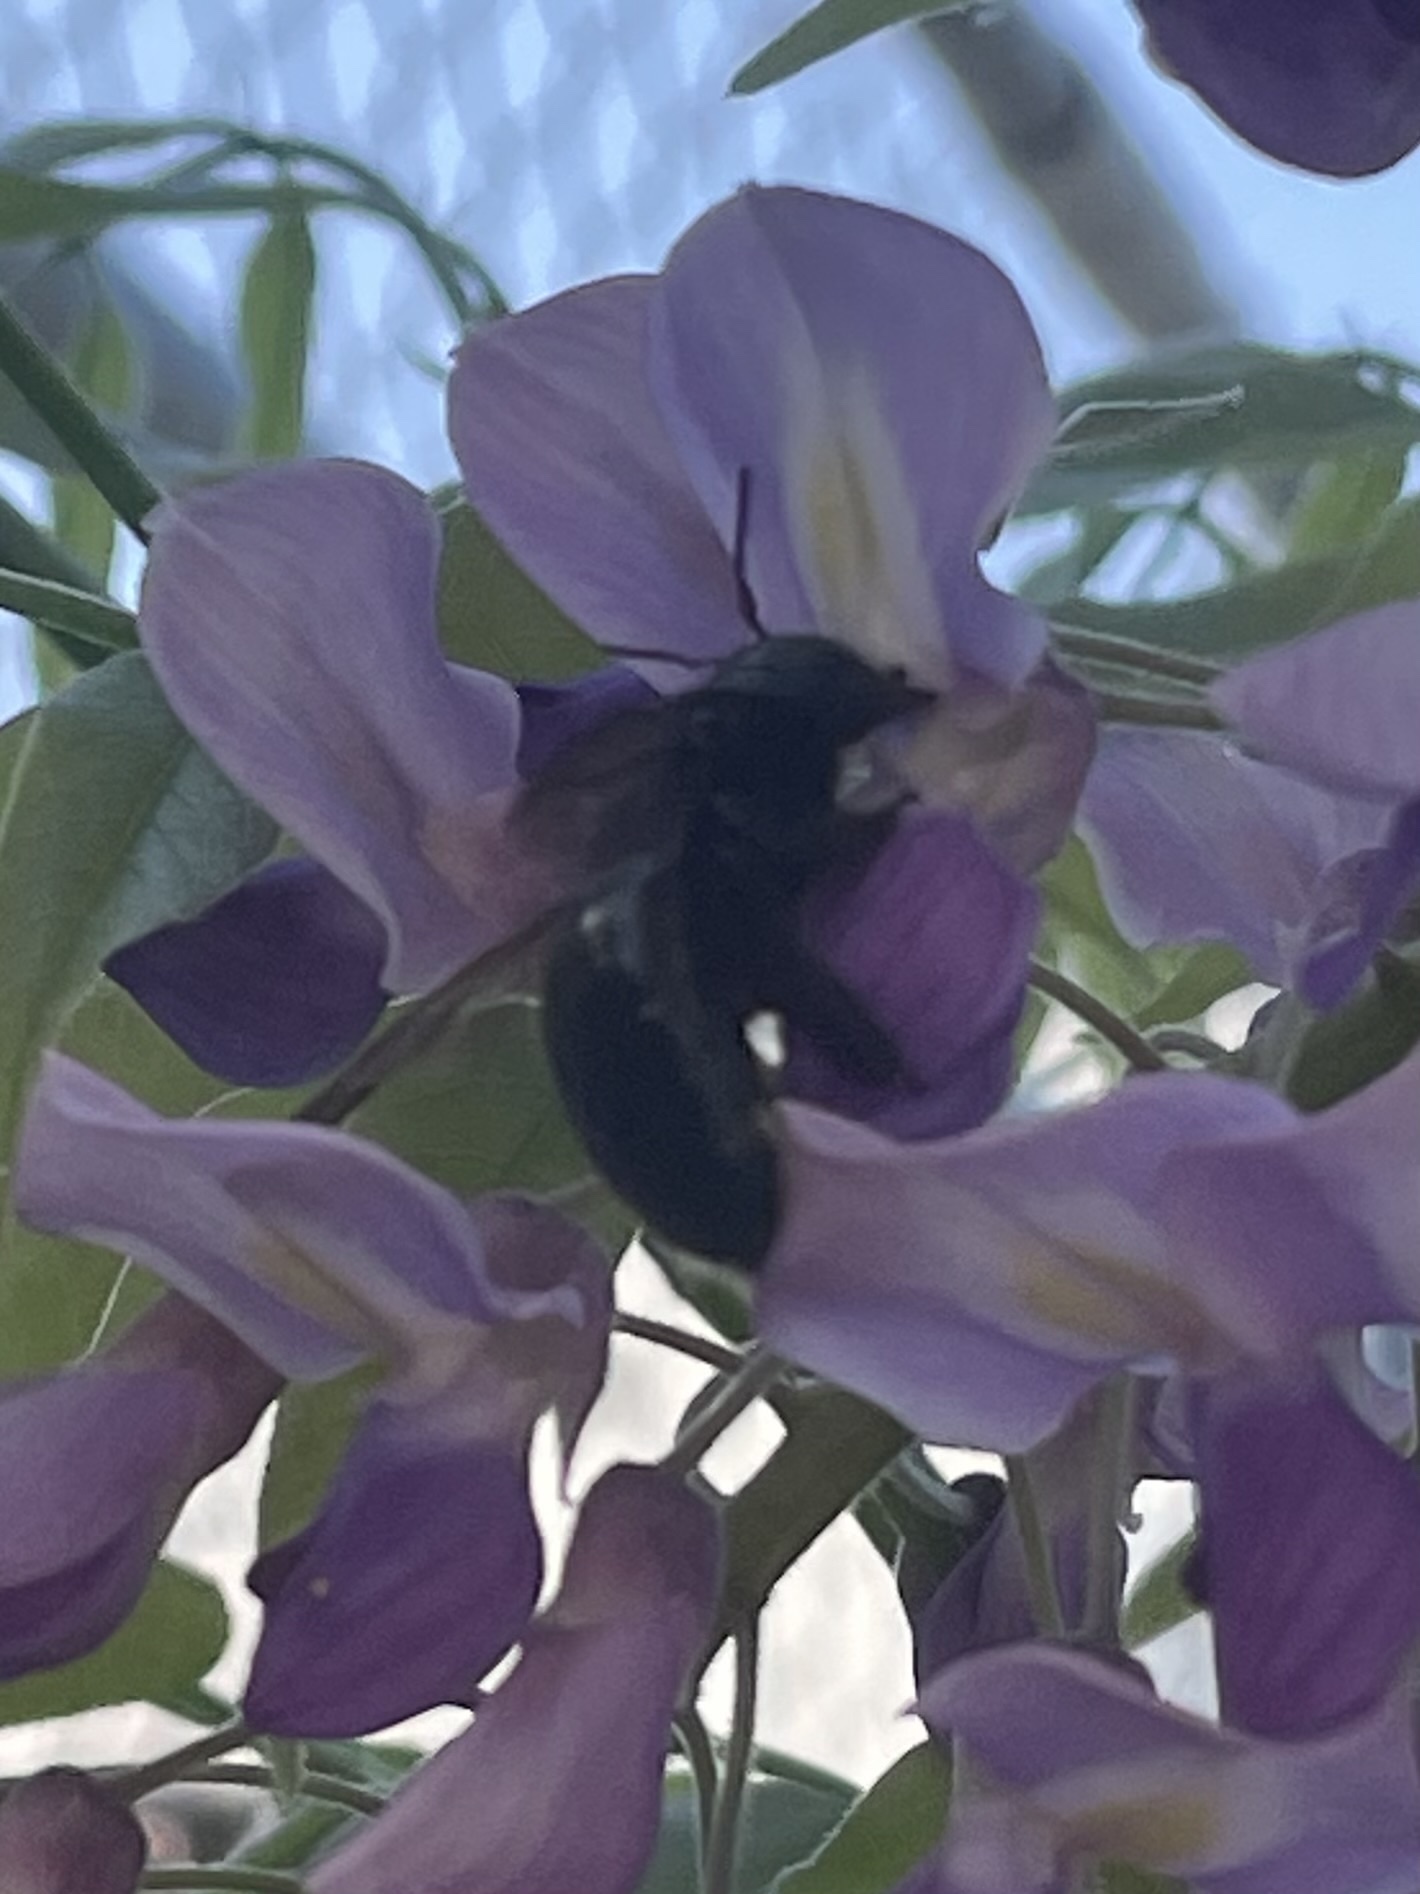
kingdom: Animalia
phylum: Arthropoda
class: Insecta
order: Hymenoptera
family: Apidae
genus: Xylocopa
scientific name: Xylocopa micans
